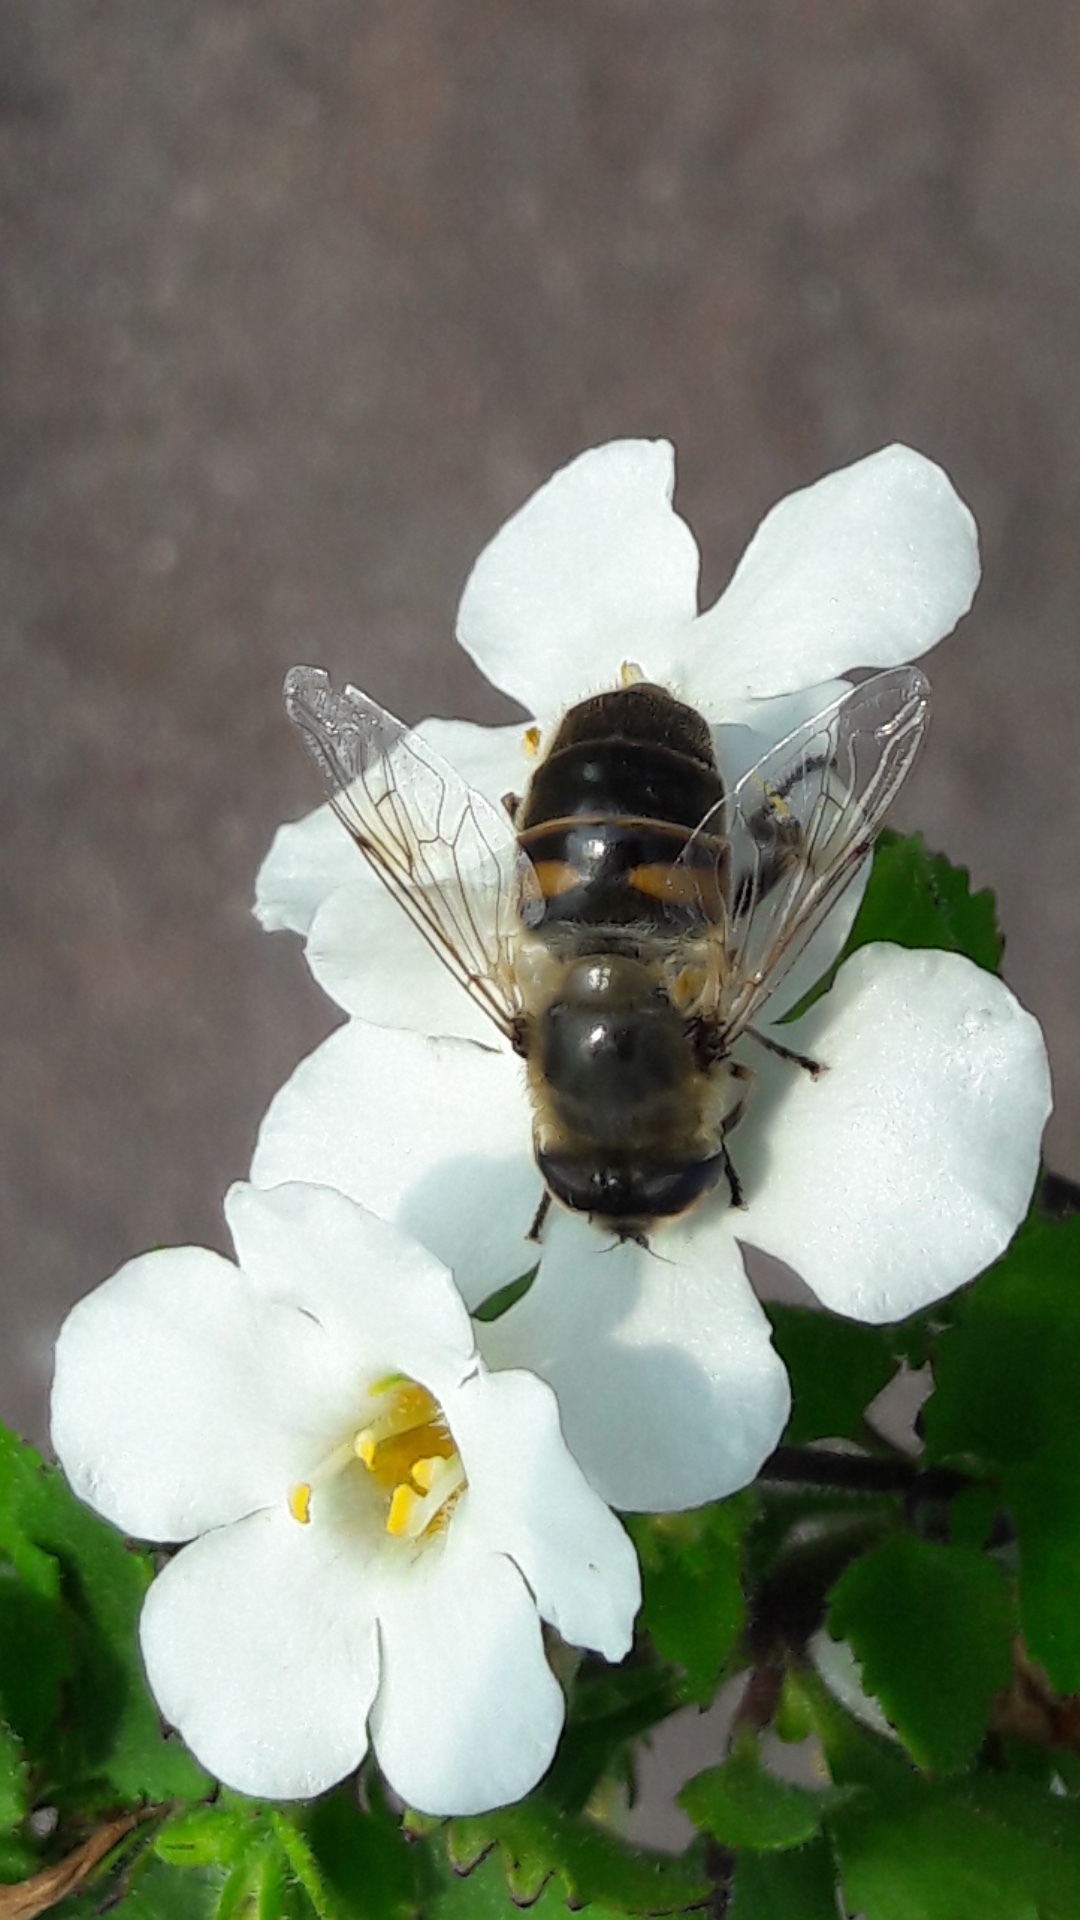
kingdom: Animalia
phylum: Arthropoda
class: Insecta
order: Diptera
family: Syrphidae
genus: Eristalis
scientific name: Eristalis tenax
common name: Drone fly
